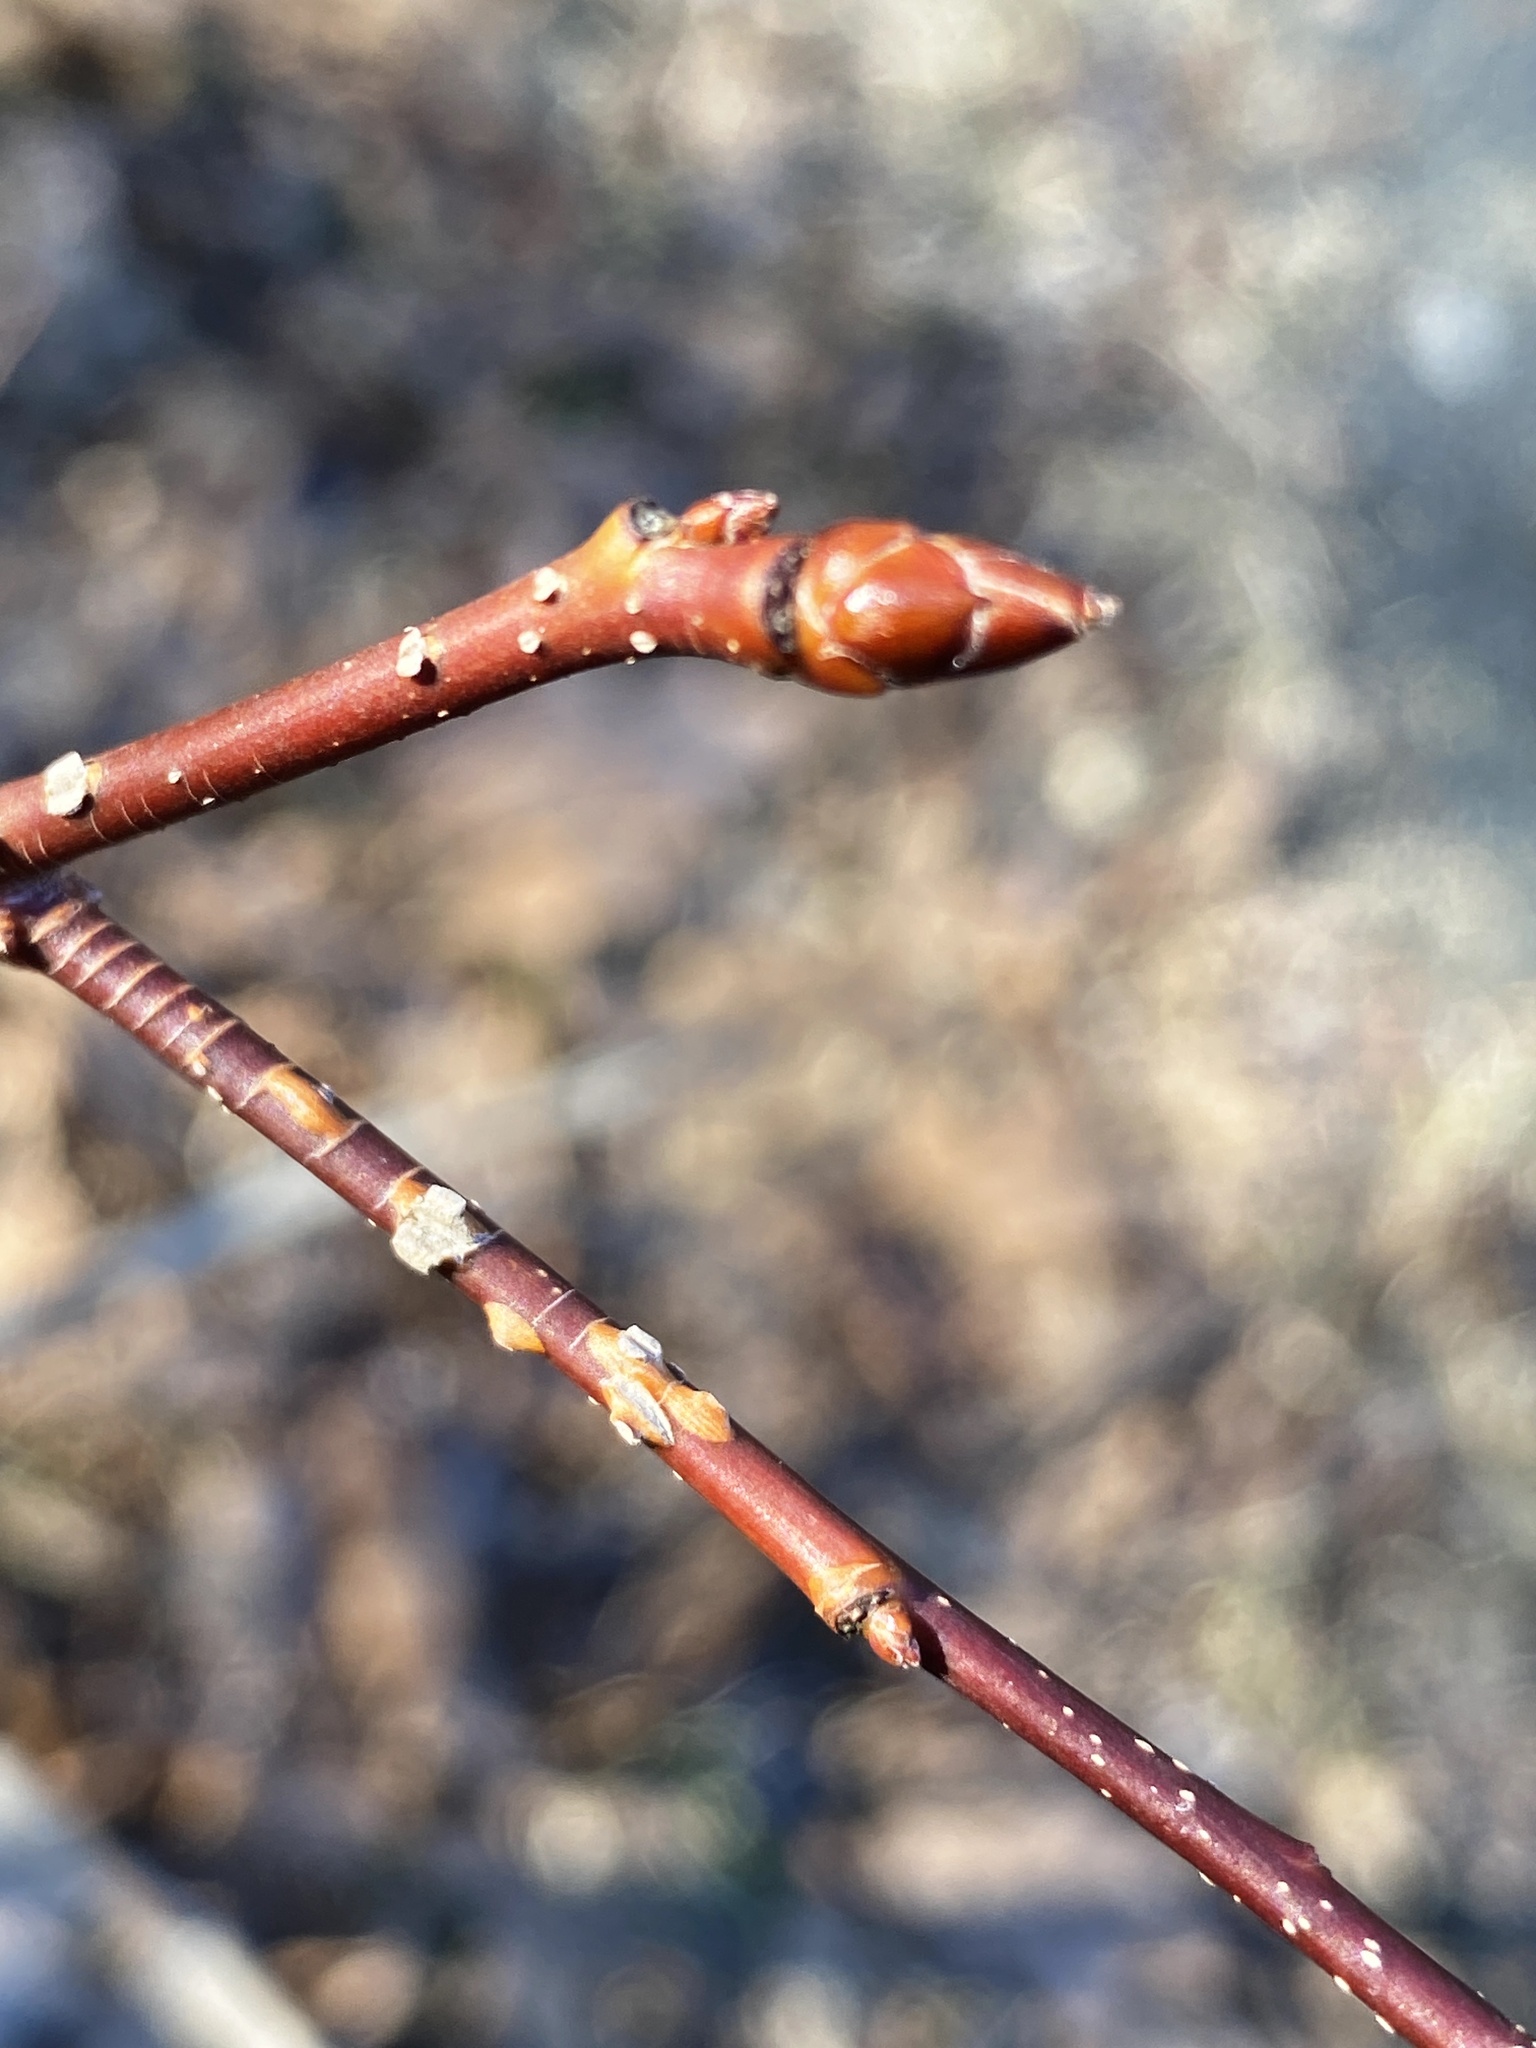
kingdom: Plantae
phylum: Tracheophyta
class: Magnoliopsida
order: Saxifragales
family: Altingiaceae
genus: Liquidambar
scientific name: Liquidambar styraciflua
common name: Sweet gum
